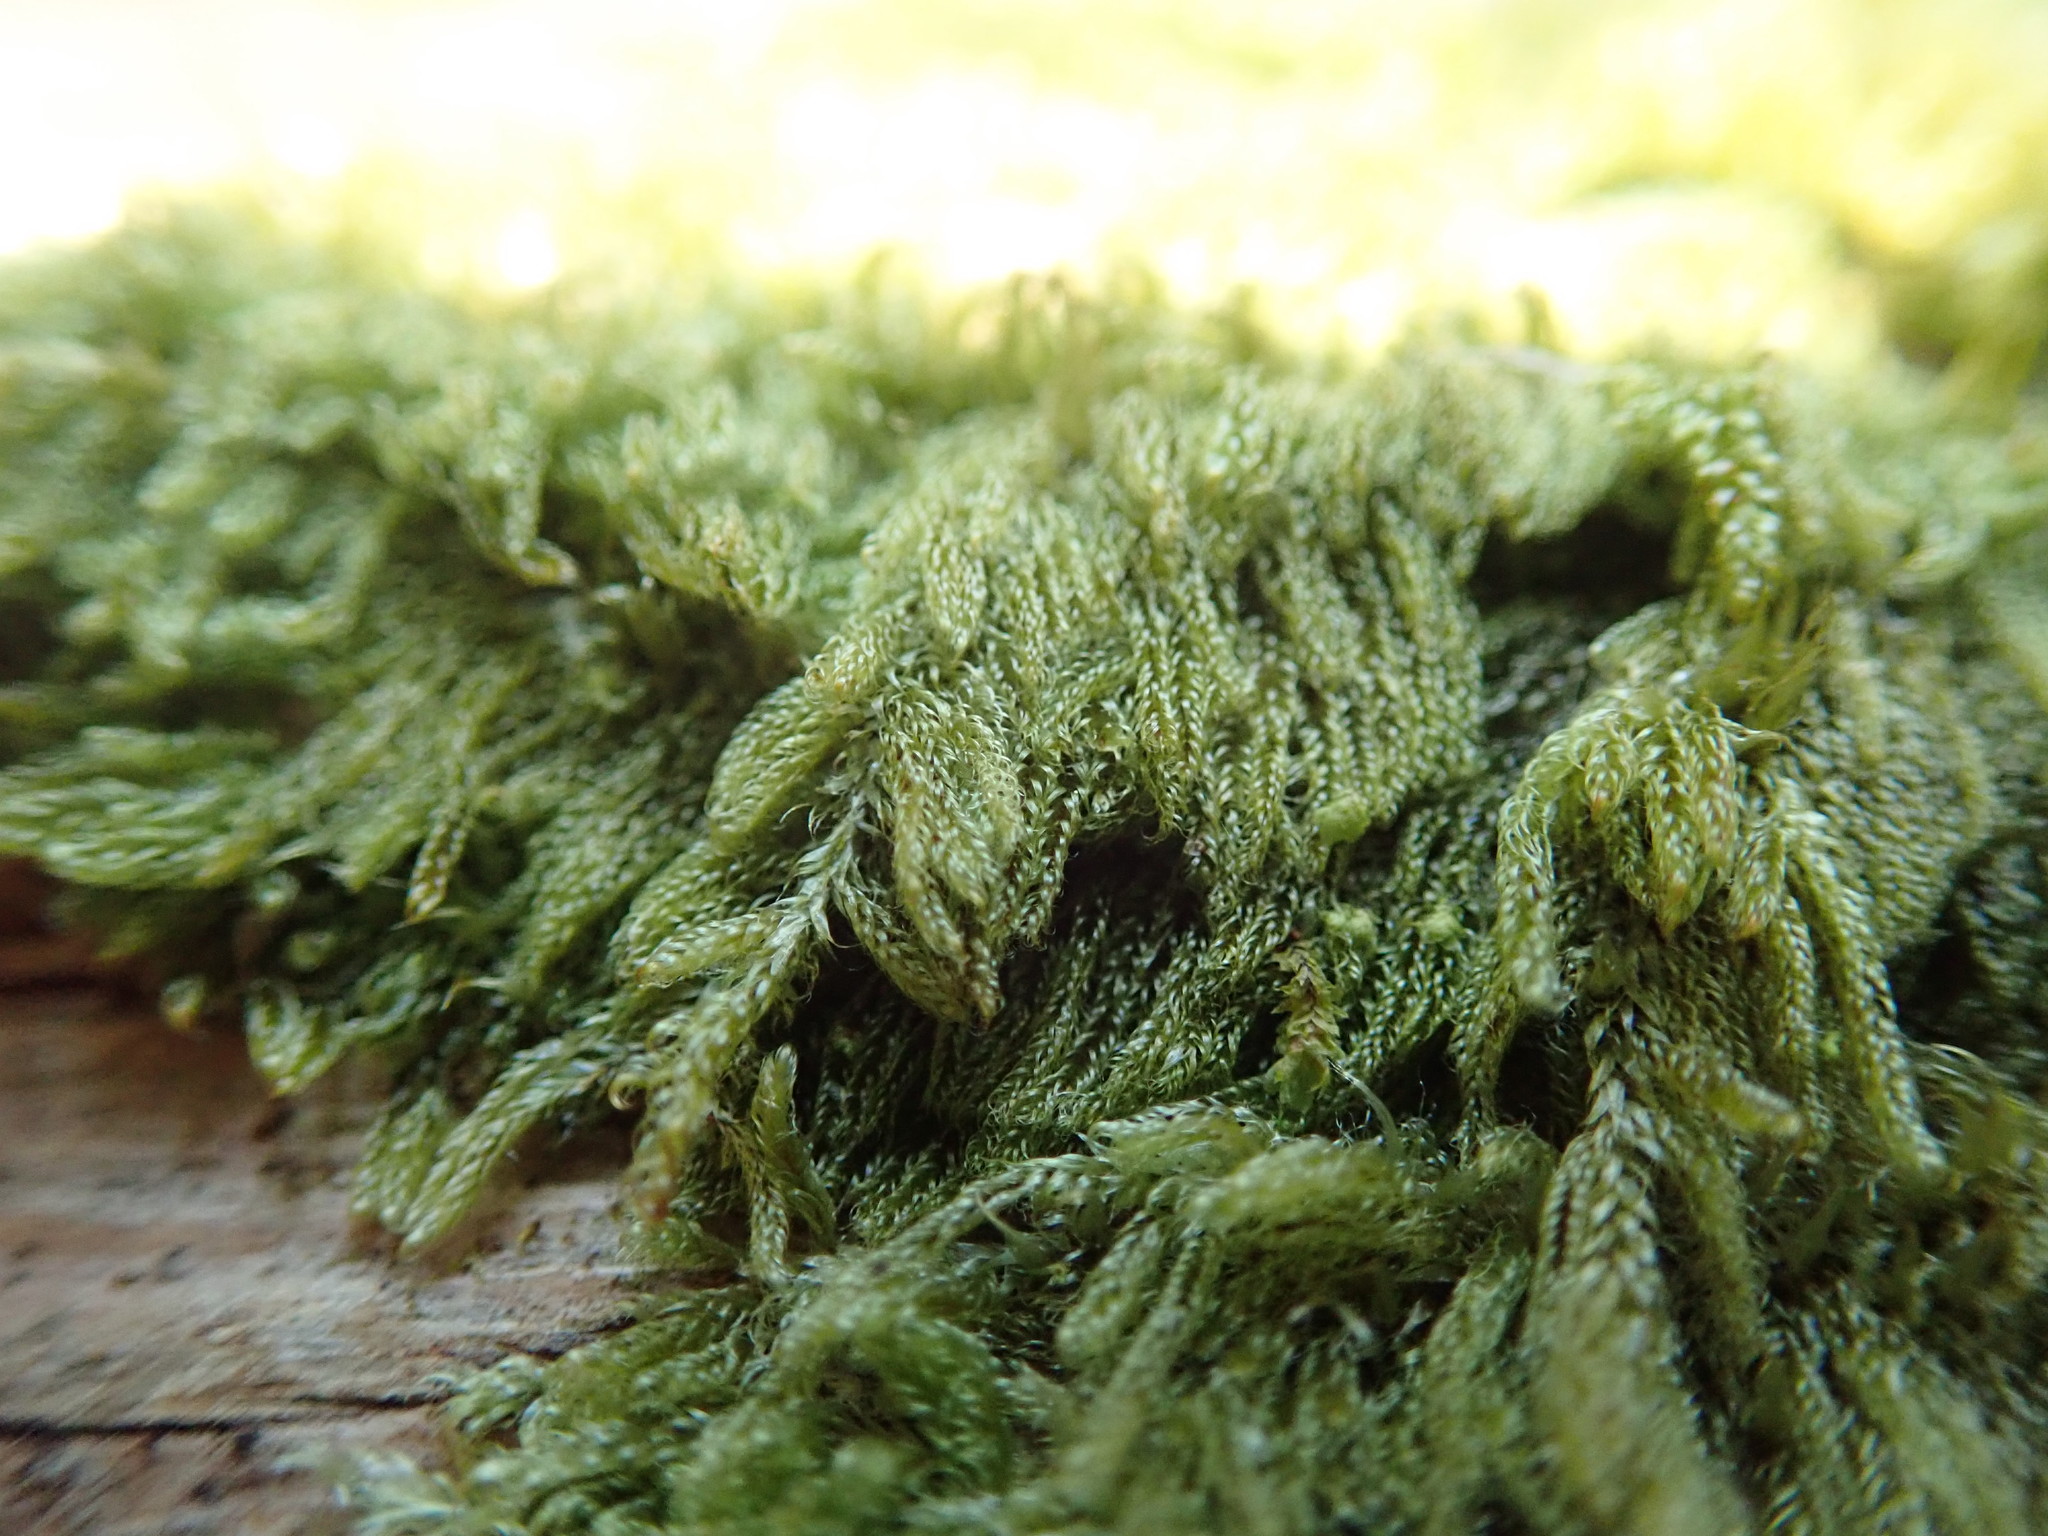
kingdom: Plantae
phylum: Bryophyta
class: Bryopsida
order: Hypnales
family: Pylaisiadelphaceae
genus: Trochophyllohypnum
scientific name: Trochophyllohypnum circinale
